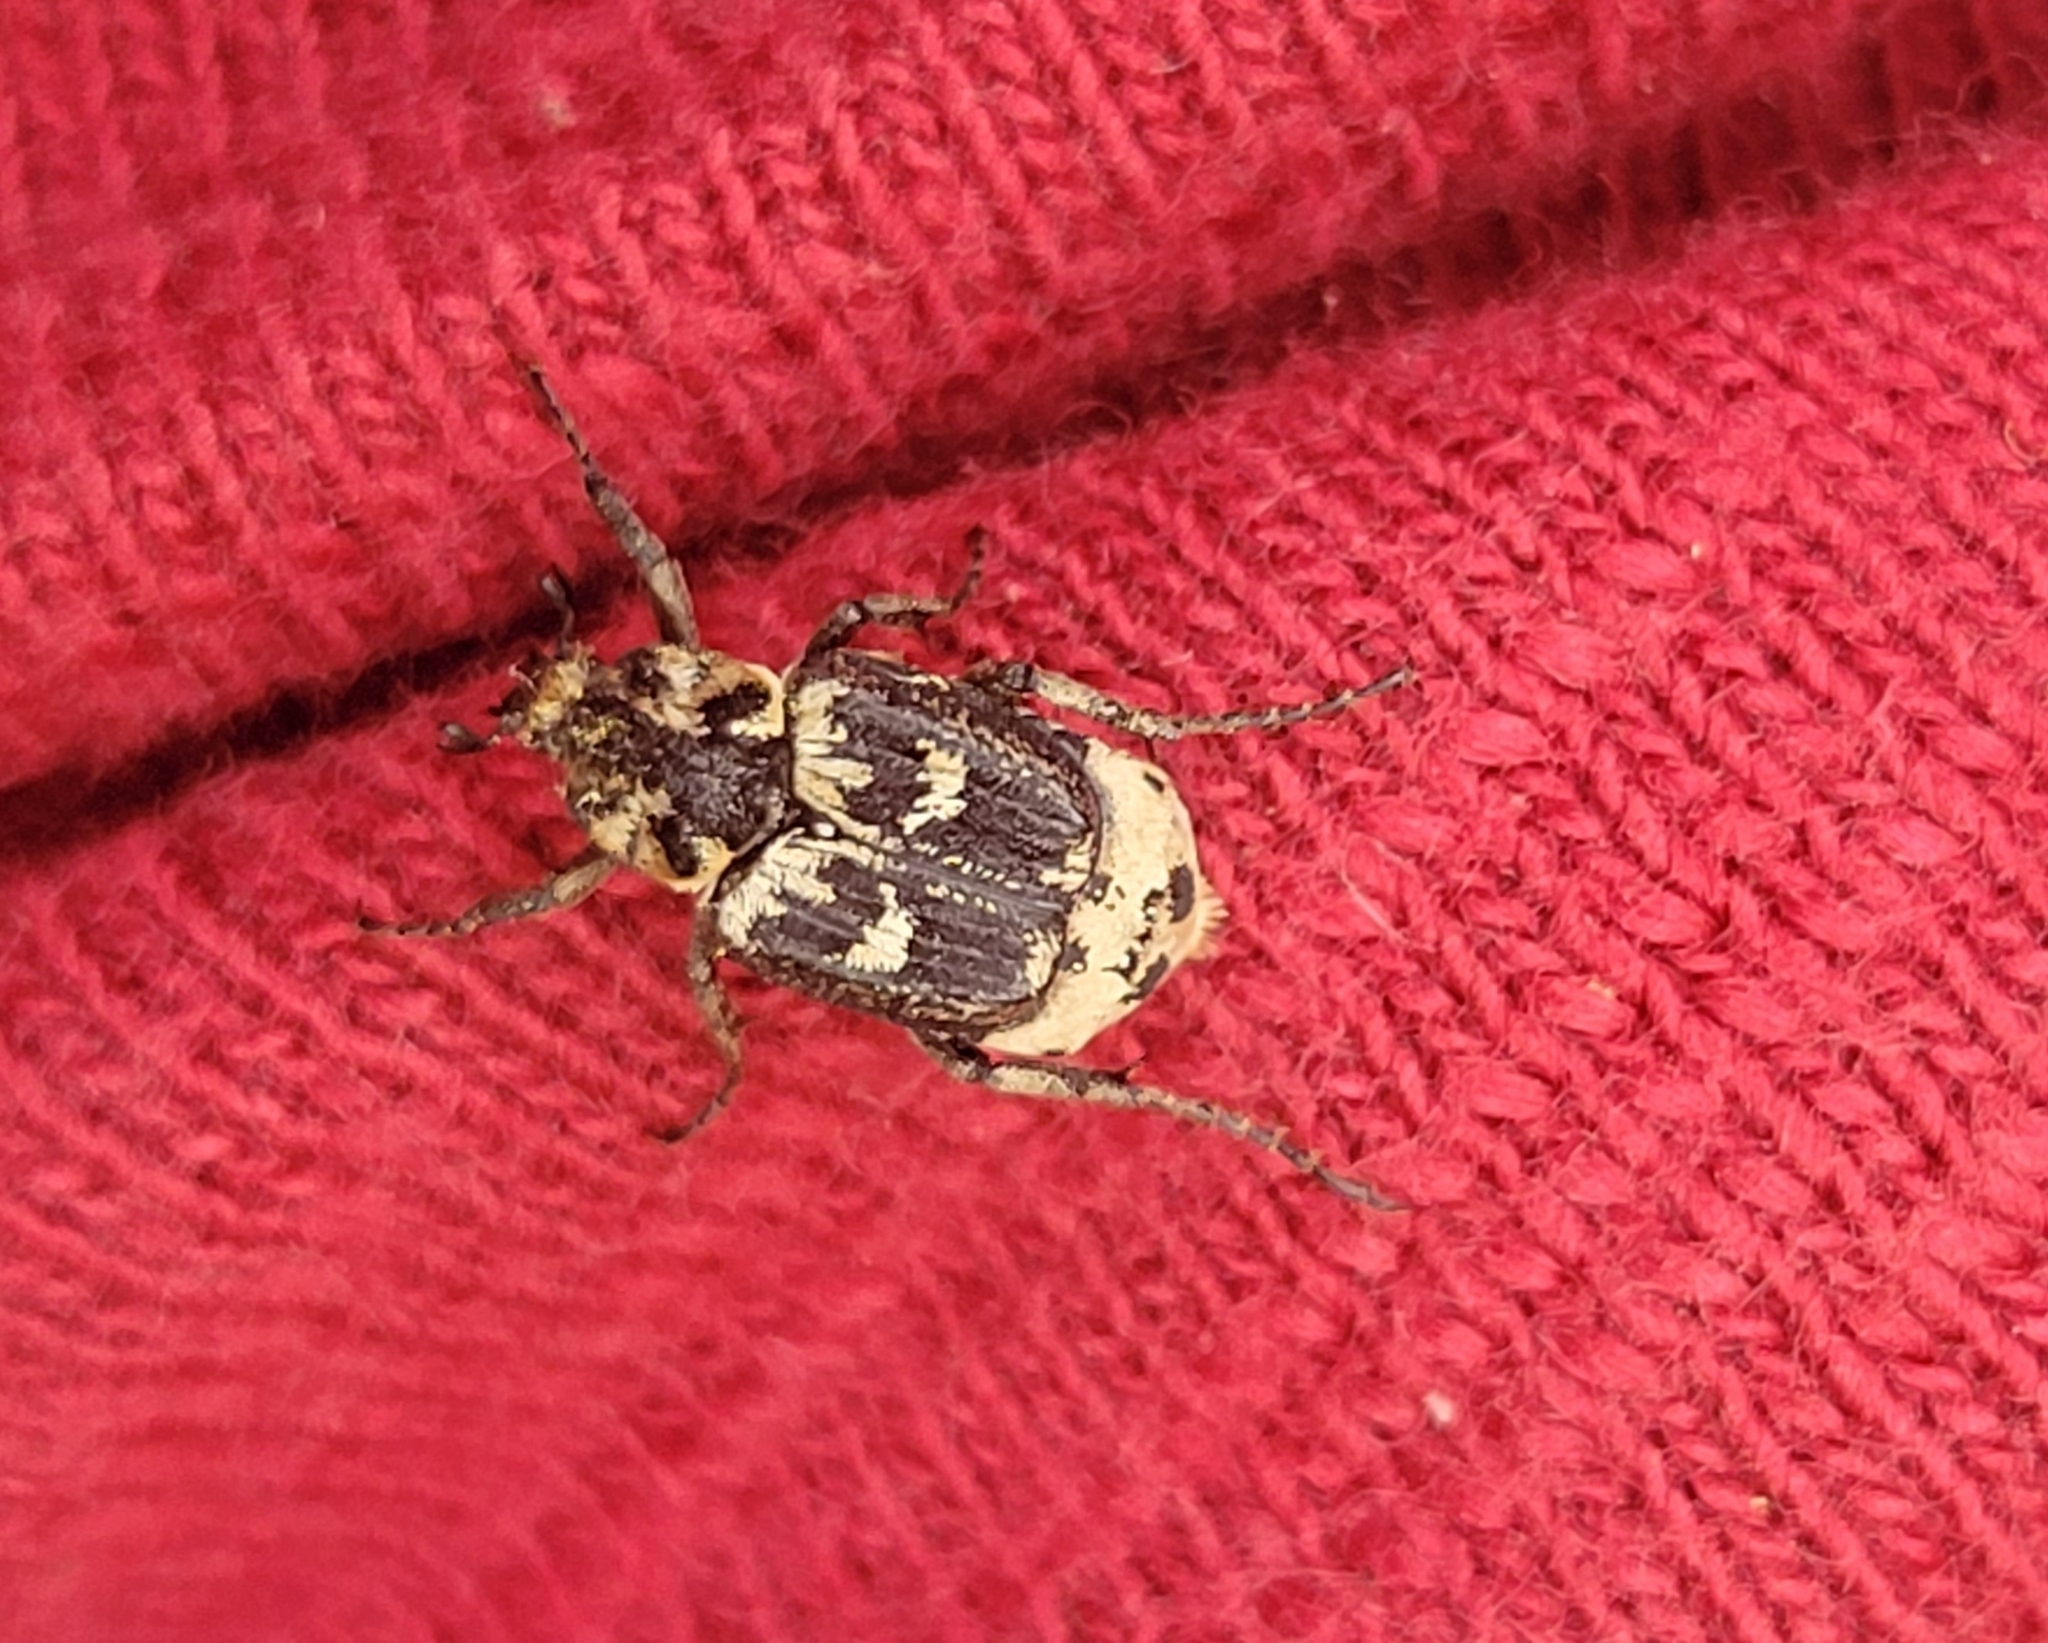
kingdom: Animalia
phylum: Arthropoda
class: Insecta
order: Coleoptera
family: Scarabaeidae
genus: Valgus
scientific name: Valgus hemipterus
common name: Bug flower chafer
